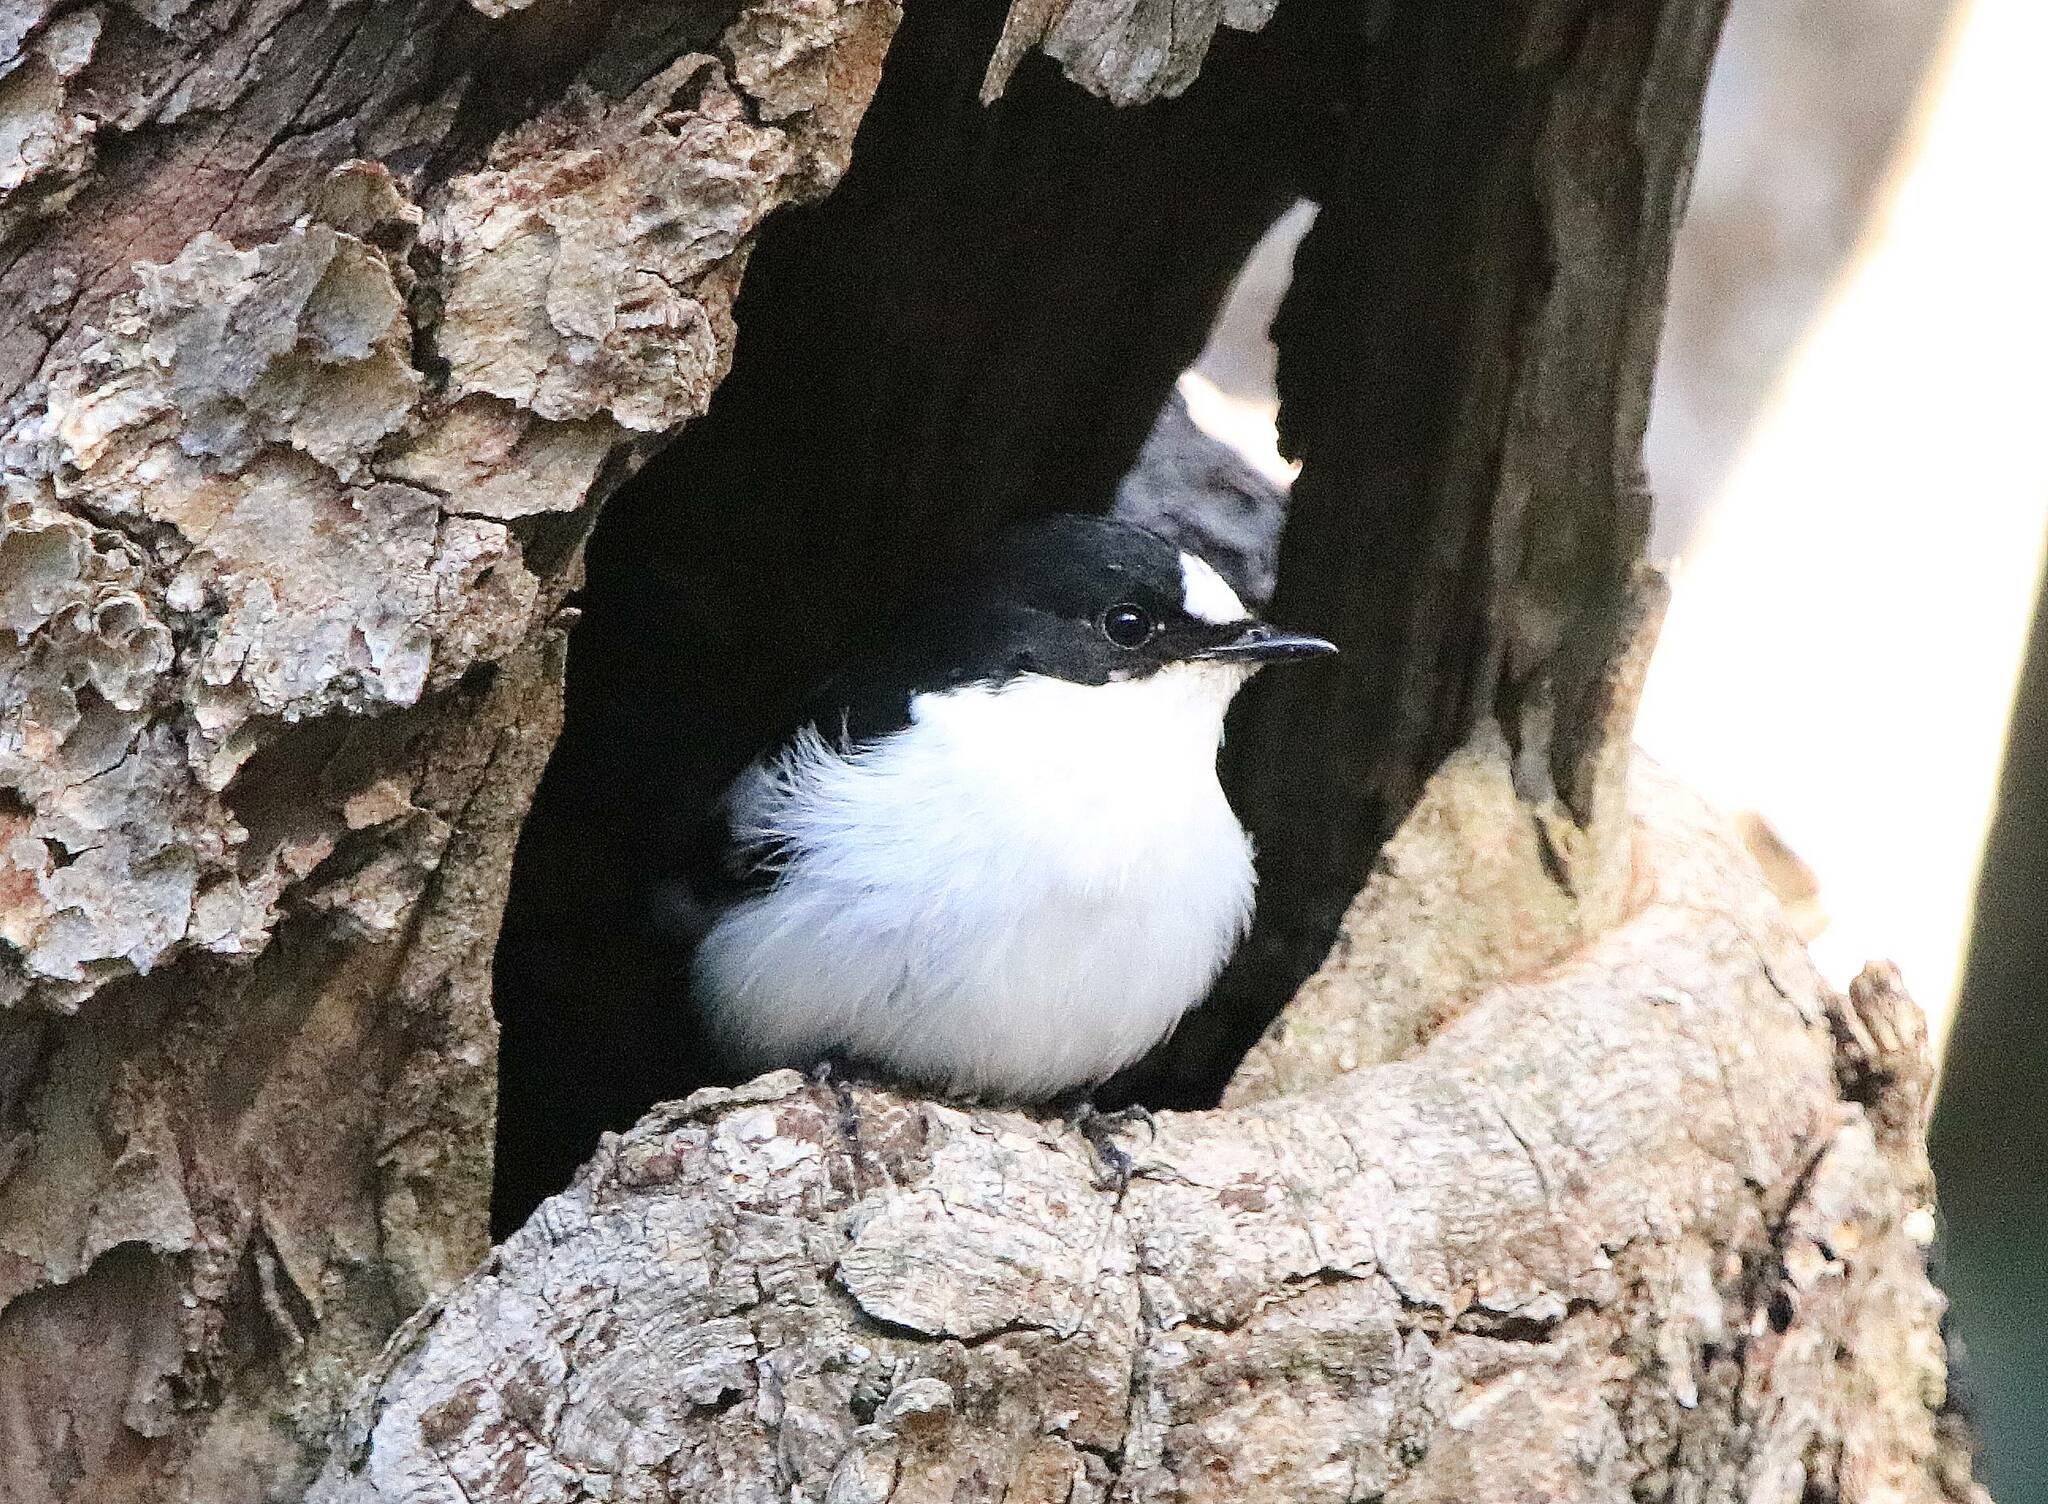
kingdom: Animalia
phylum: Chordata
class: Aves
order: Passeriformes
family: Muscicapidae
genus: Ficedula
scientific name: Ficedula speculigera
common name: Atlas pied flycatcher
